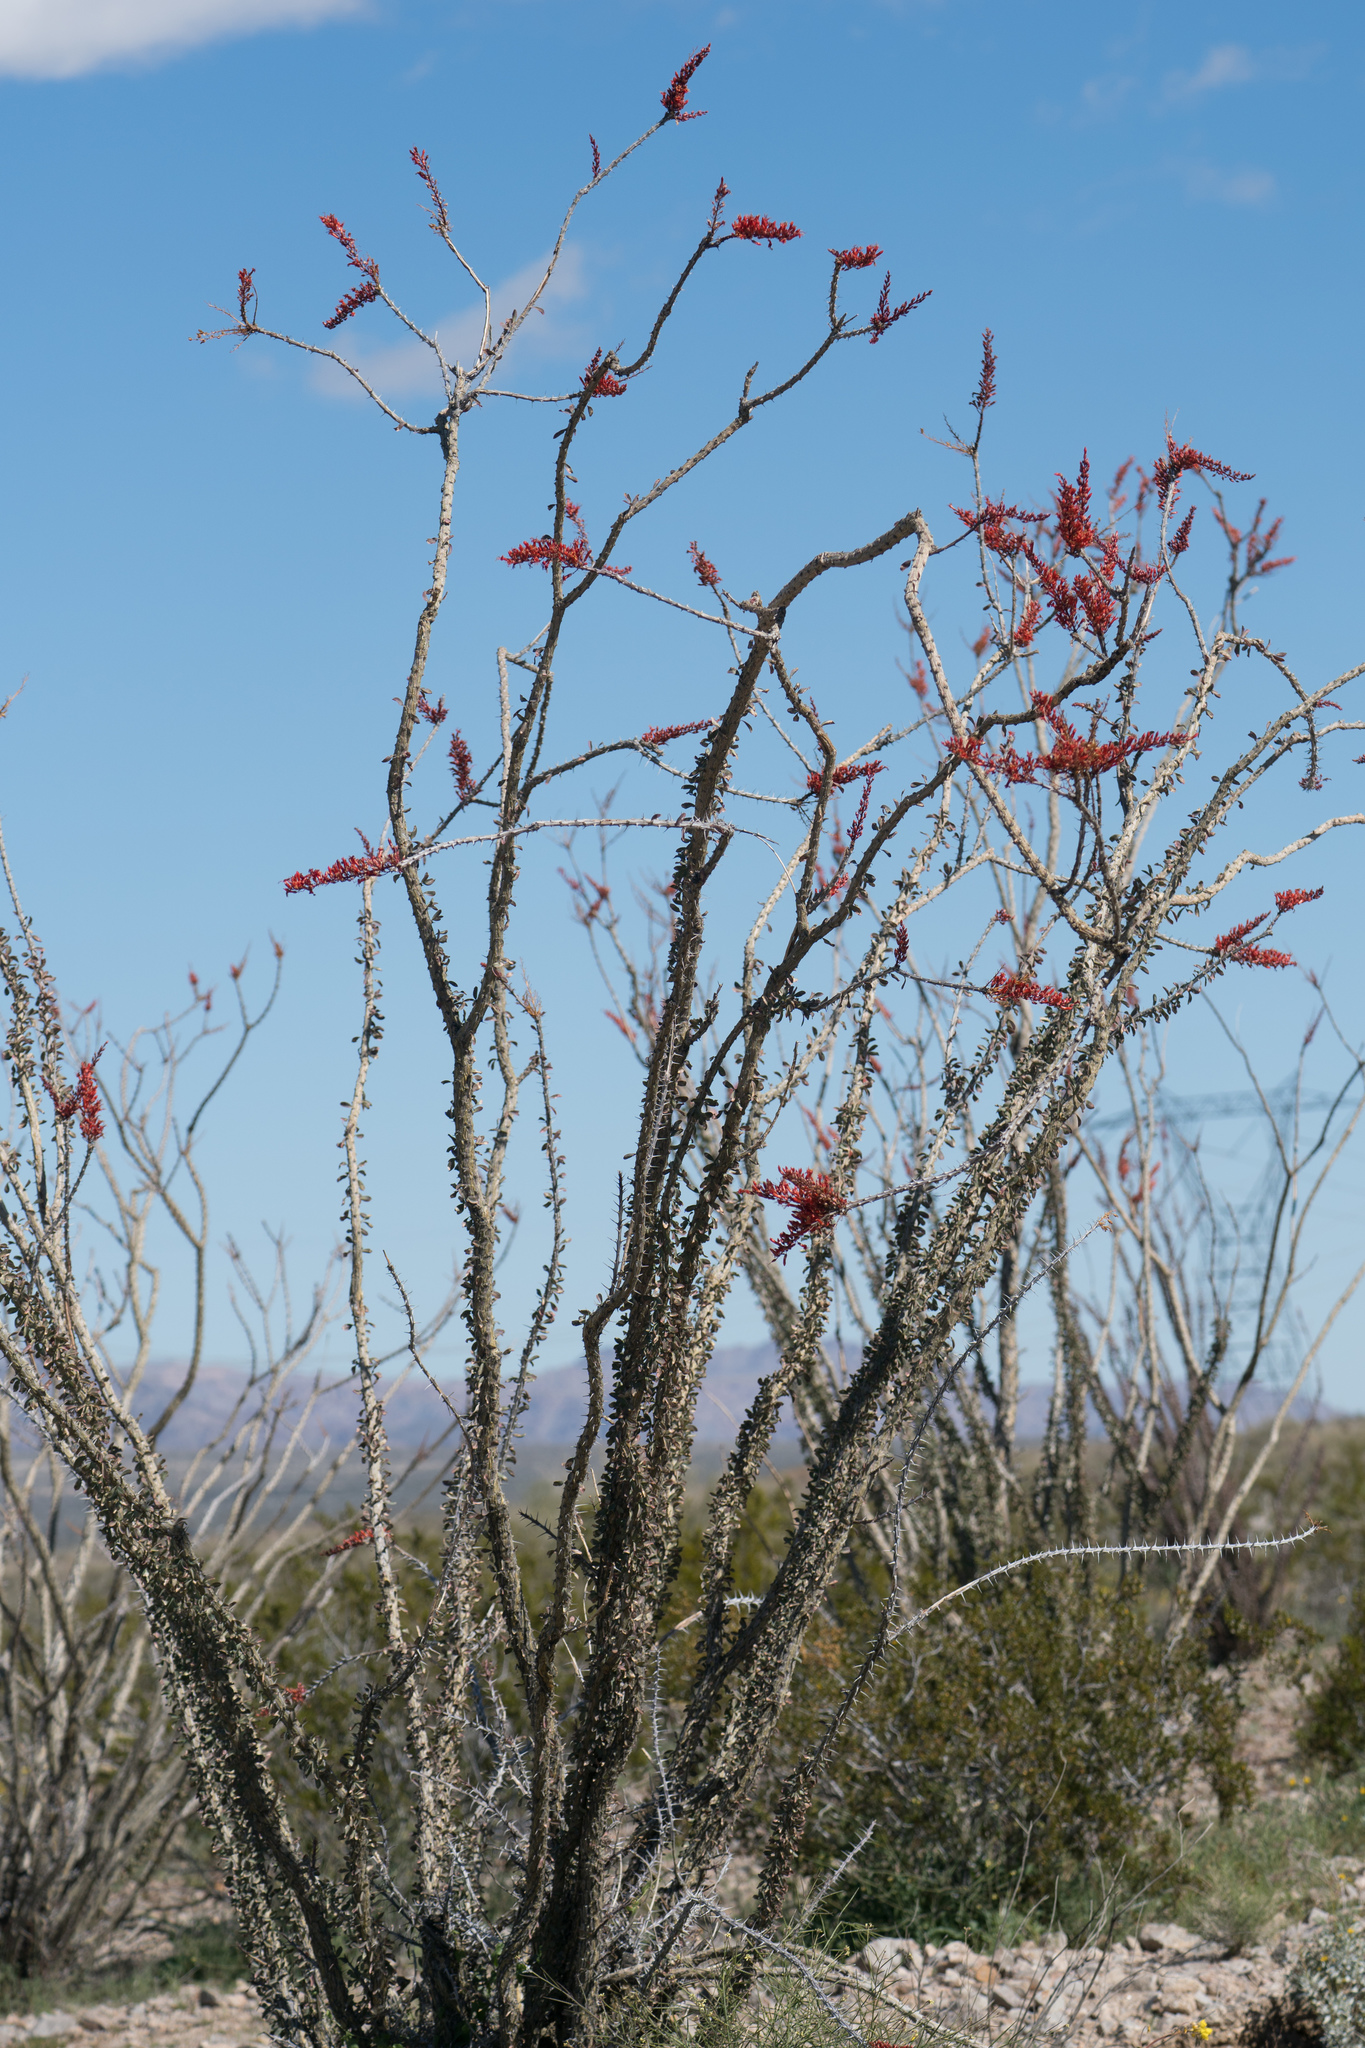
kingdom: Plantae
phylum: Tracheophyta
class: Magnoliopsida
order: Ericales
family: Fouquieriaceae
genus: Fouquieria
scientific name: Fouquieria splendens
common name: Vine-cactus
